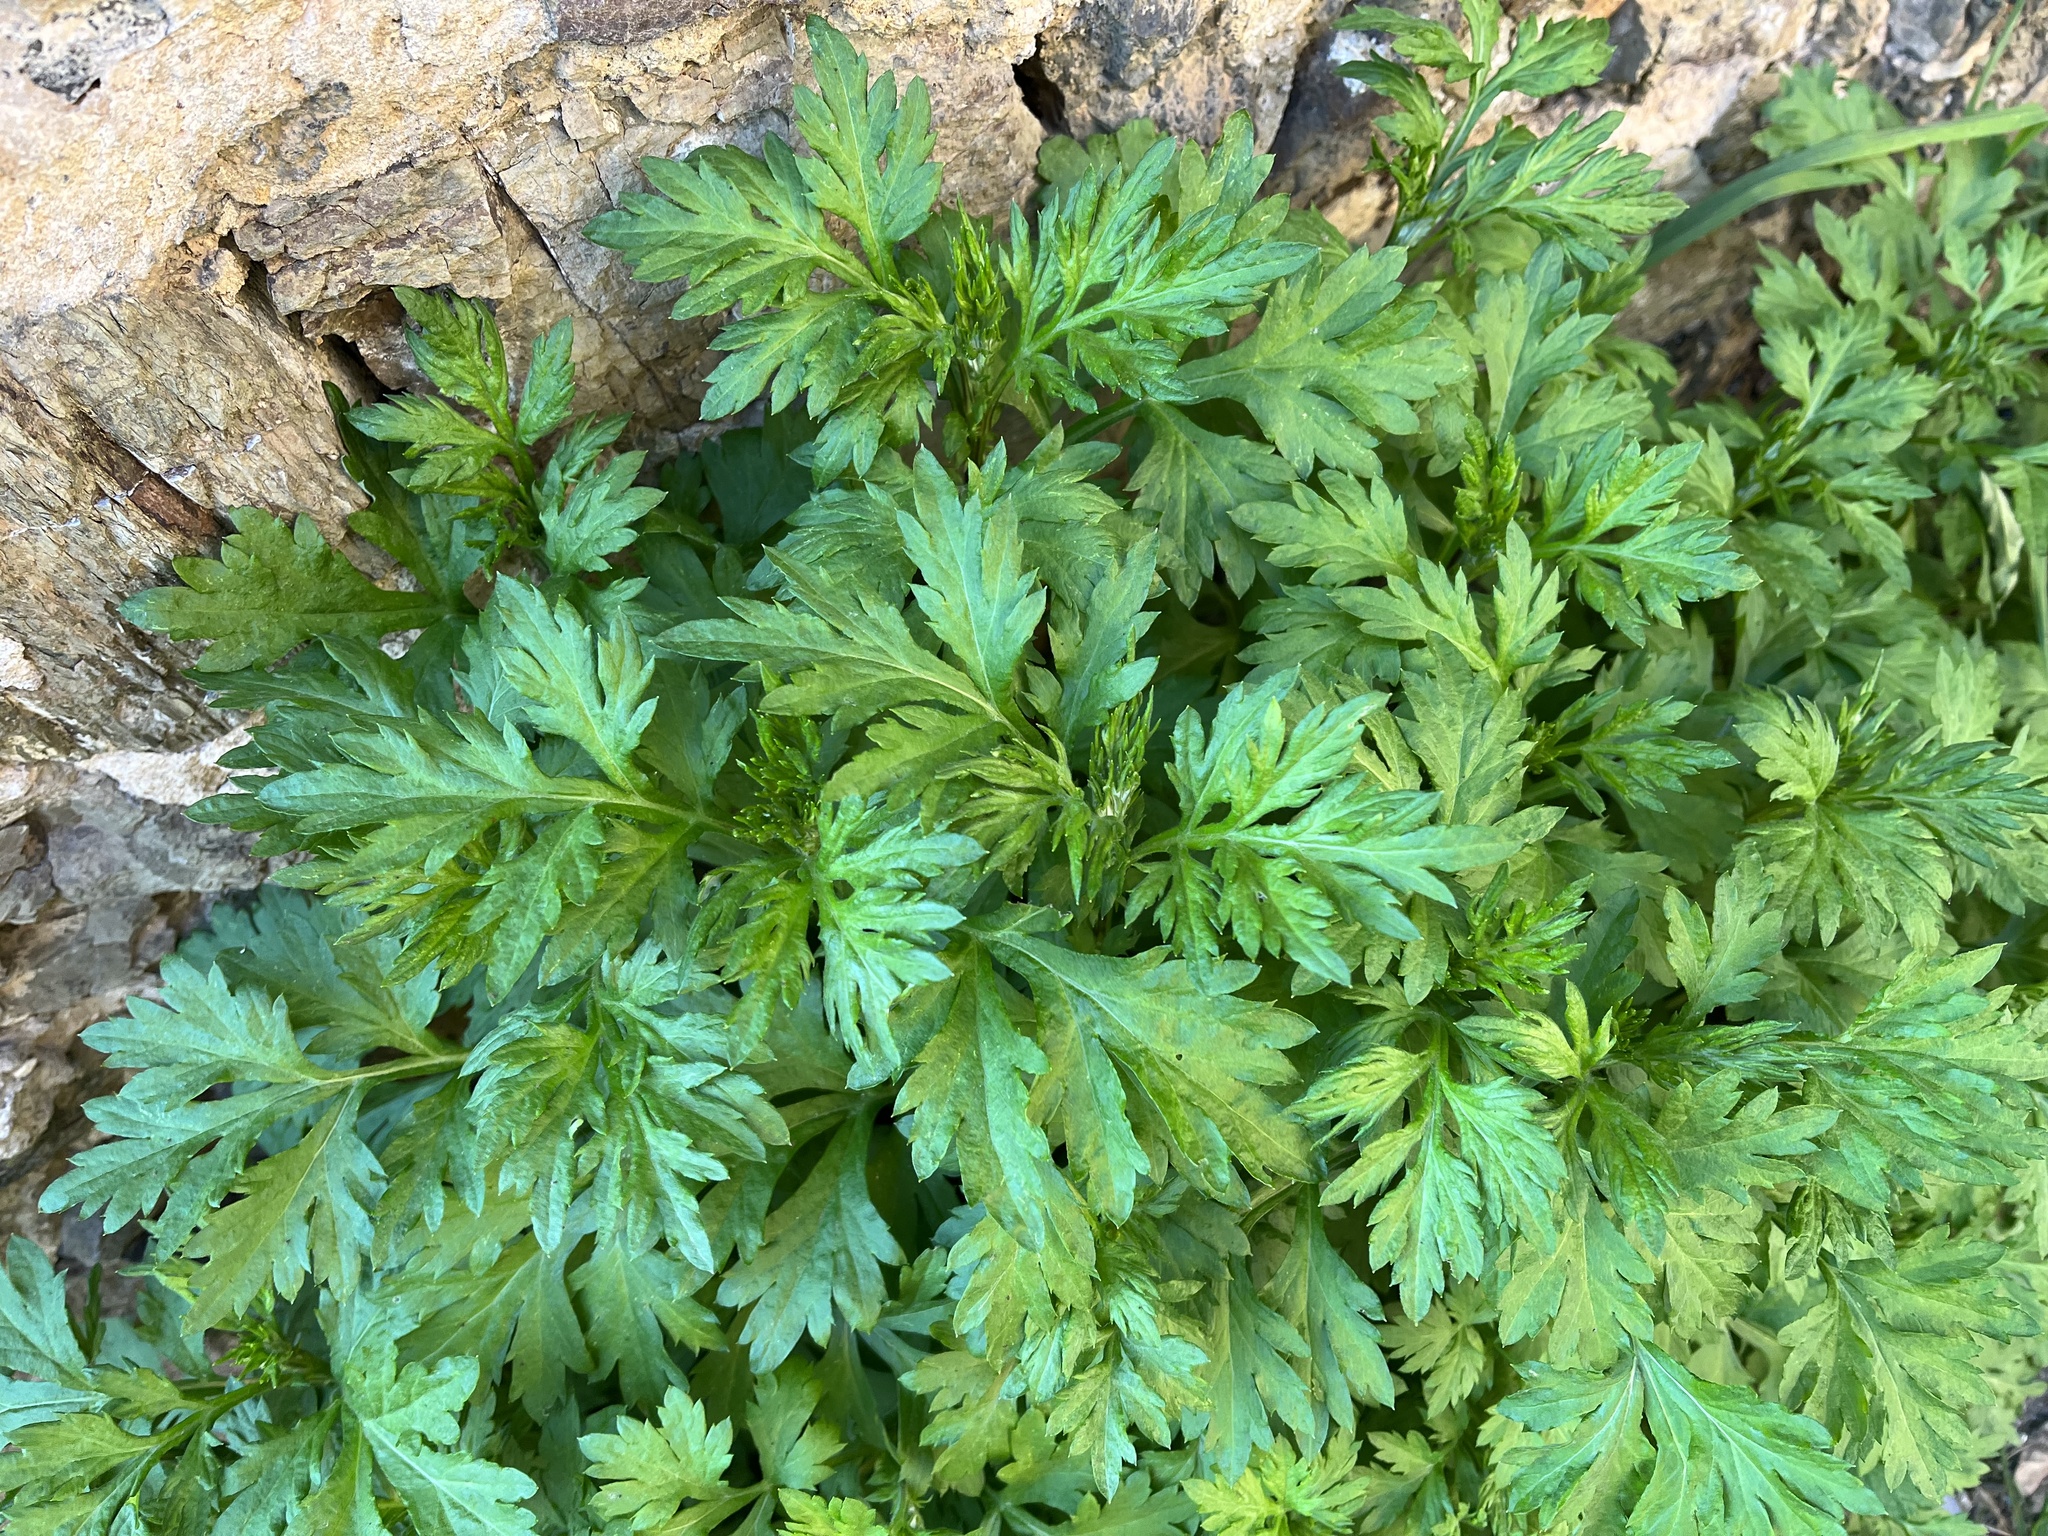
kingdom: Plantae
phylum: Tracheophyta
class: Magnoliopsida
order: Asterales
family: Asteraceae
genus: Artemisia
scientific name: Artemisia vulgaris
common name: Mugwort
